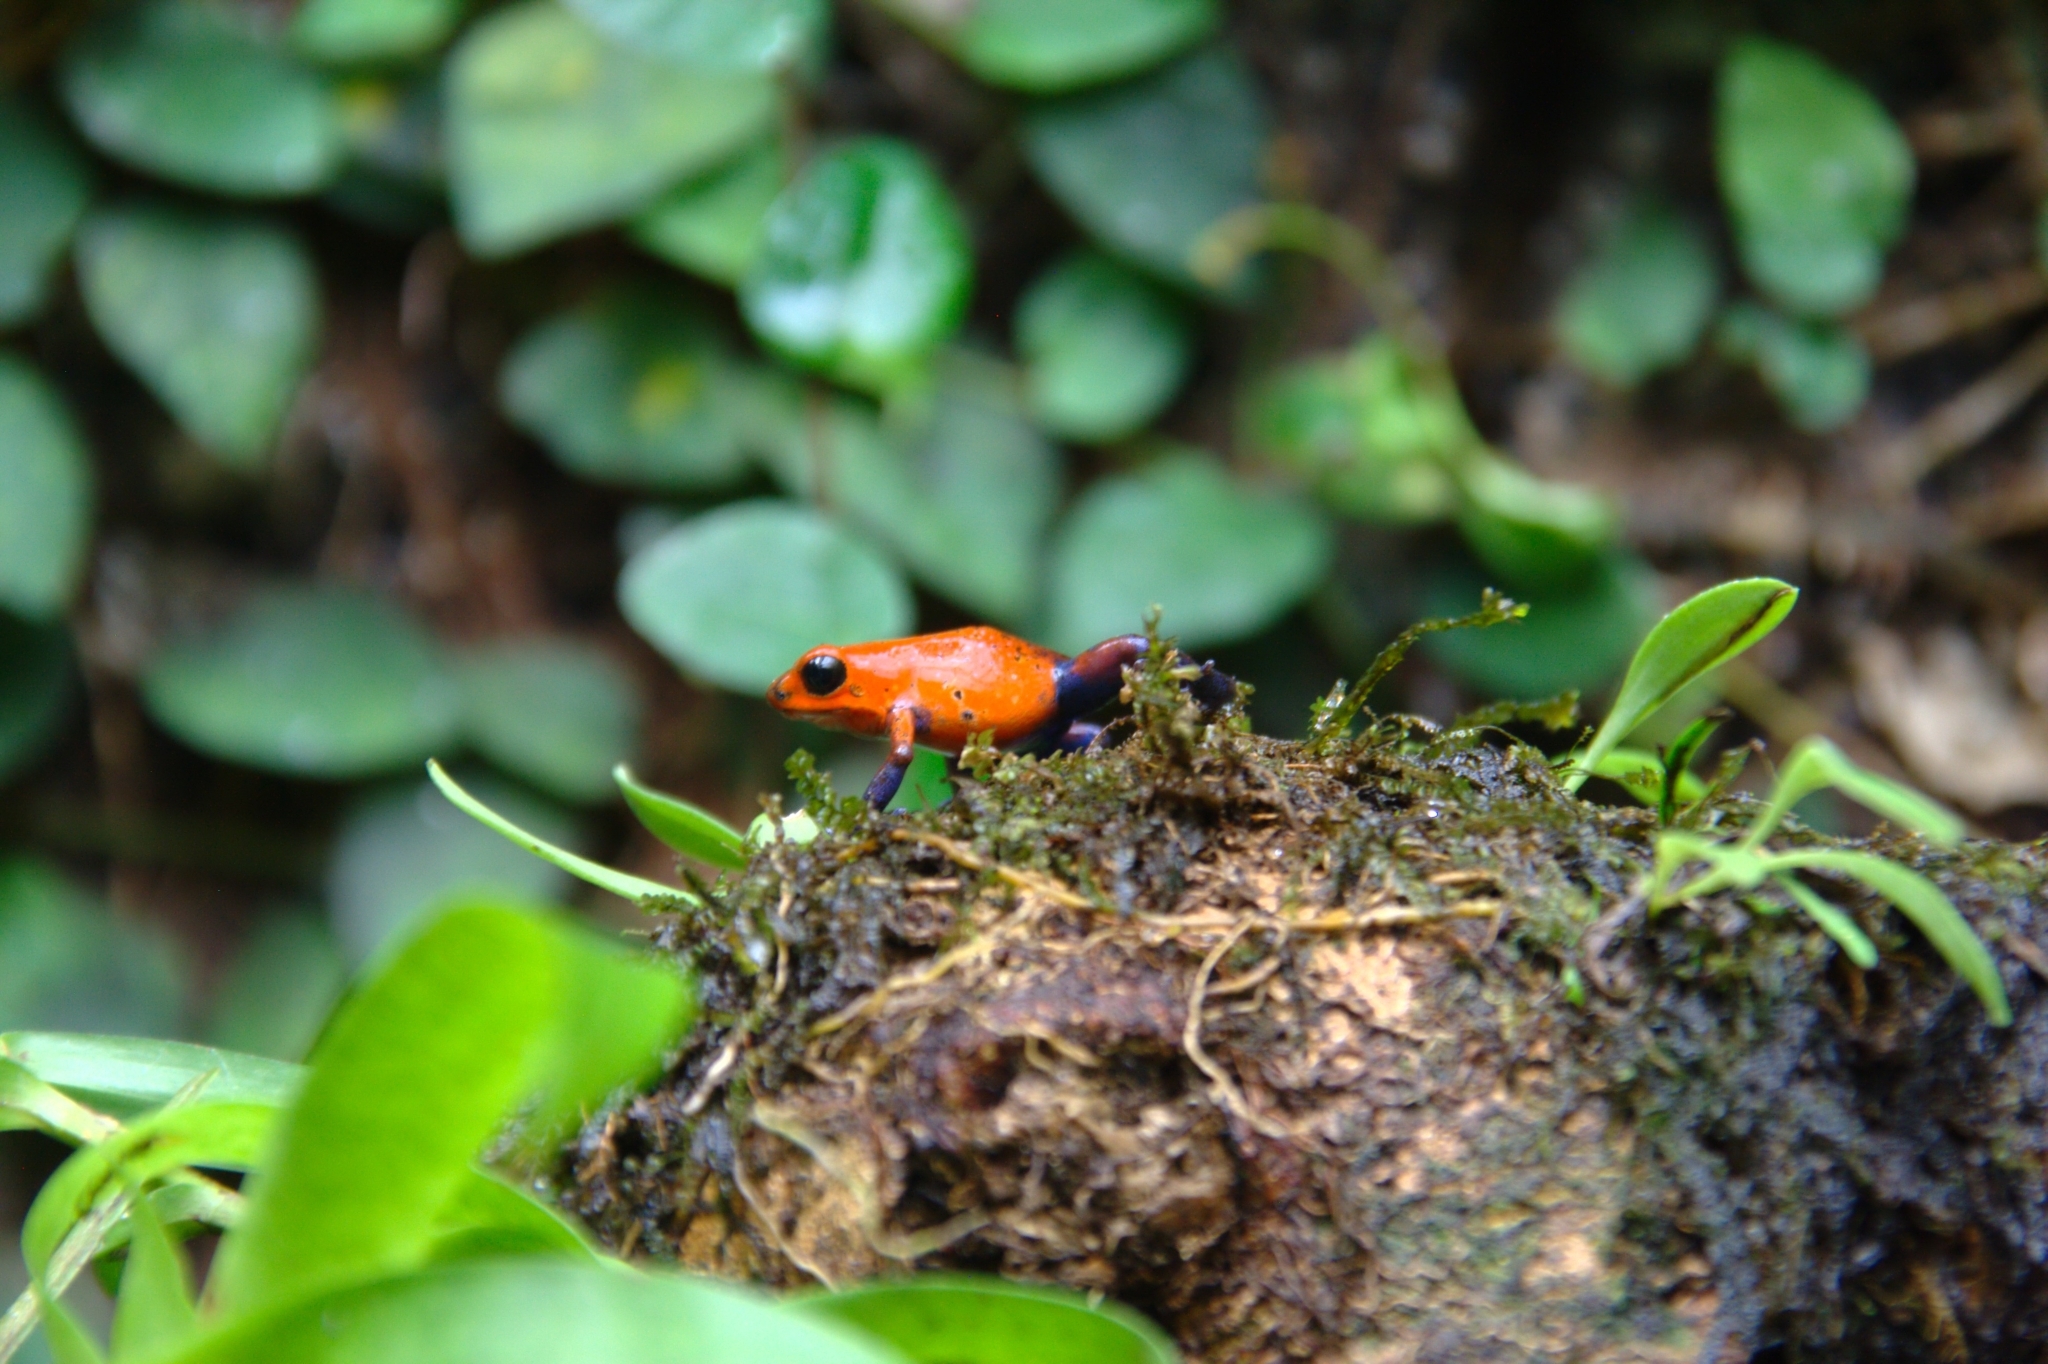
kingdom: Animalia
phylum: Chordata
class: Amphibia
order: Anura
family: Dendrobatidae
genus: Oophaga
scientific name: Oophaga pumilio
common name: Flaming poison frog
